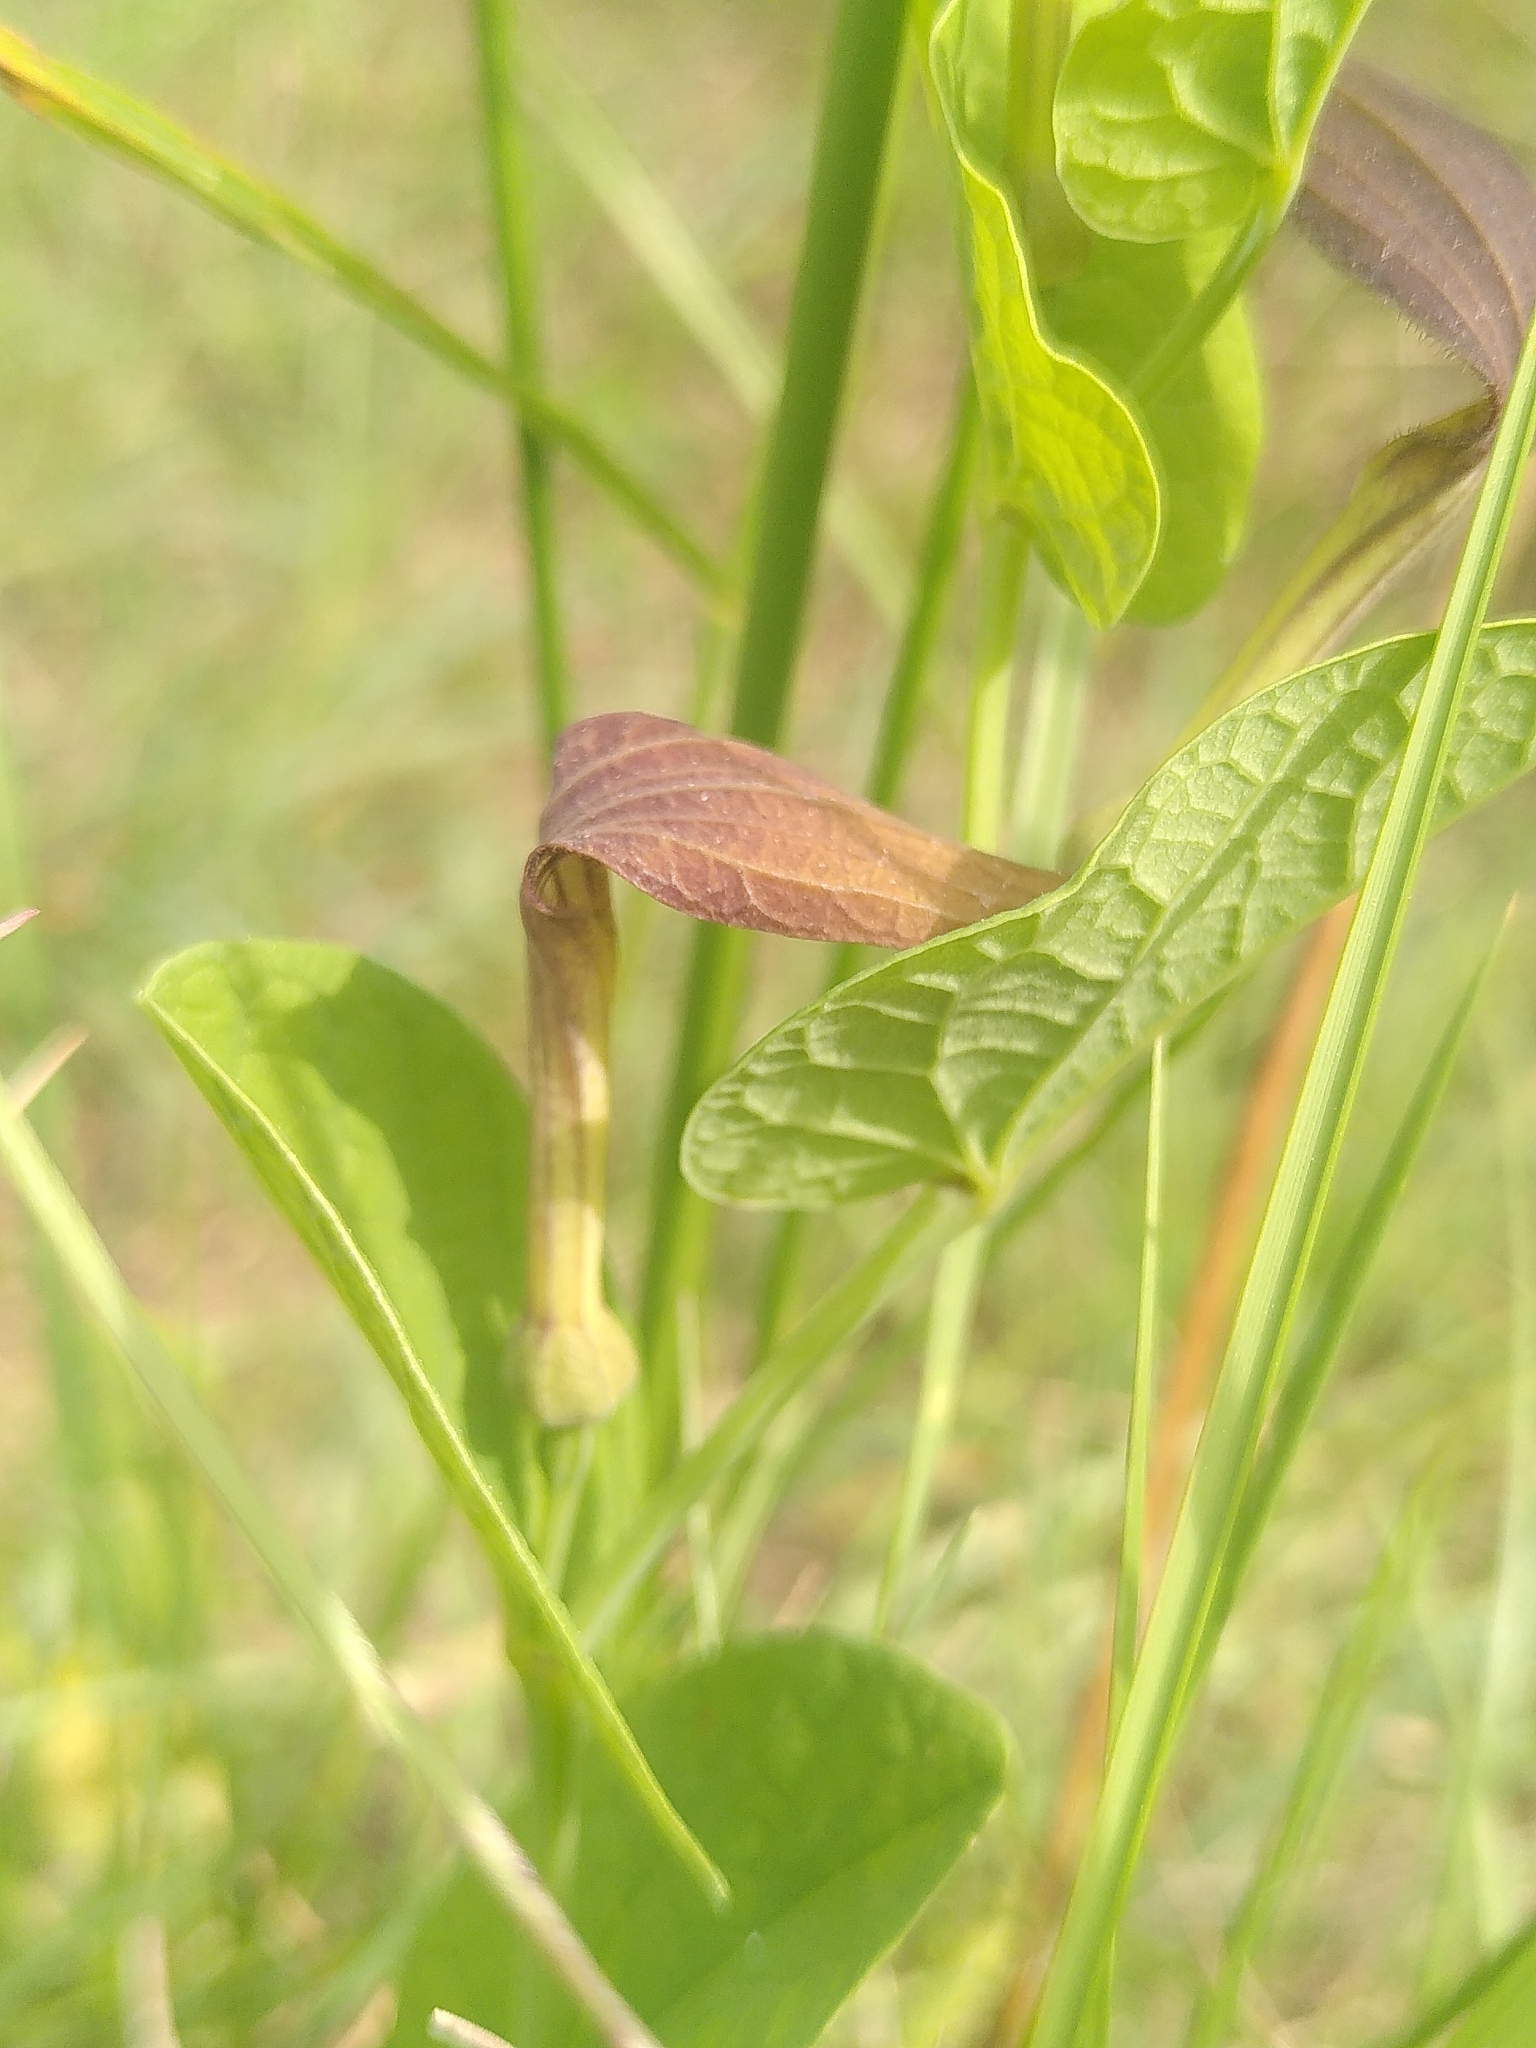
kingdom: Plantae
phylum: Tracheophyta
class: Magnoliopsida
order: Piperales
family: Aristolochiaceae
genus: Aristolochia
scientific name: Aristolochia rotunda
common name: Smearwort
